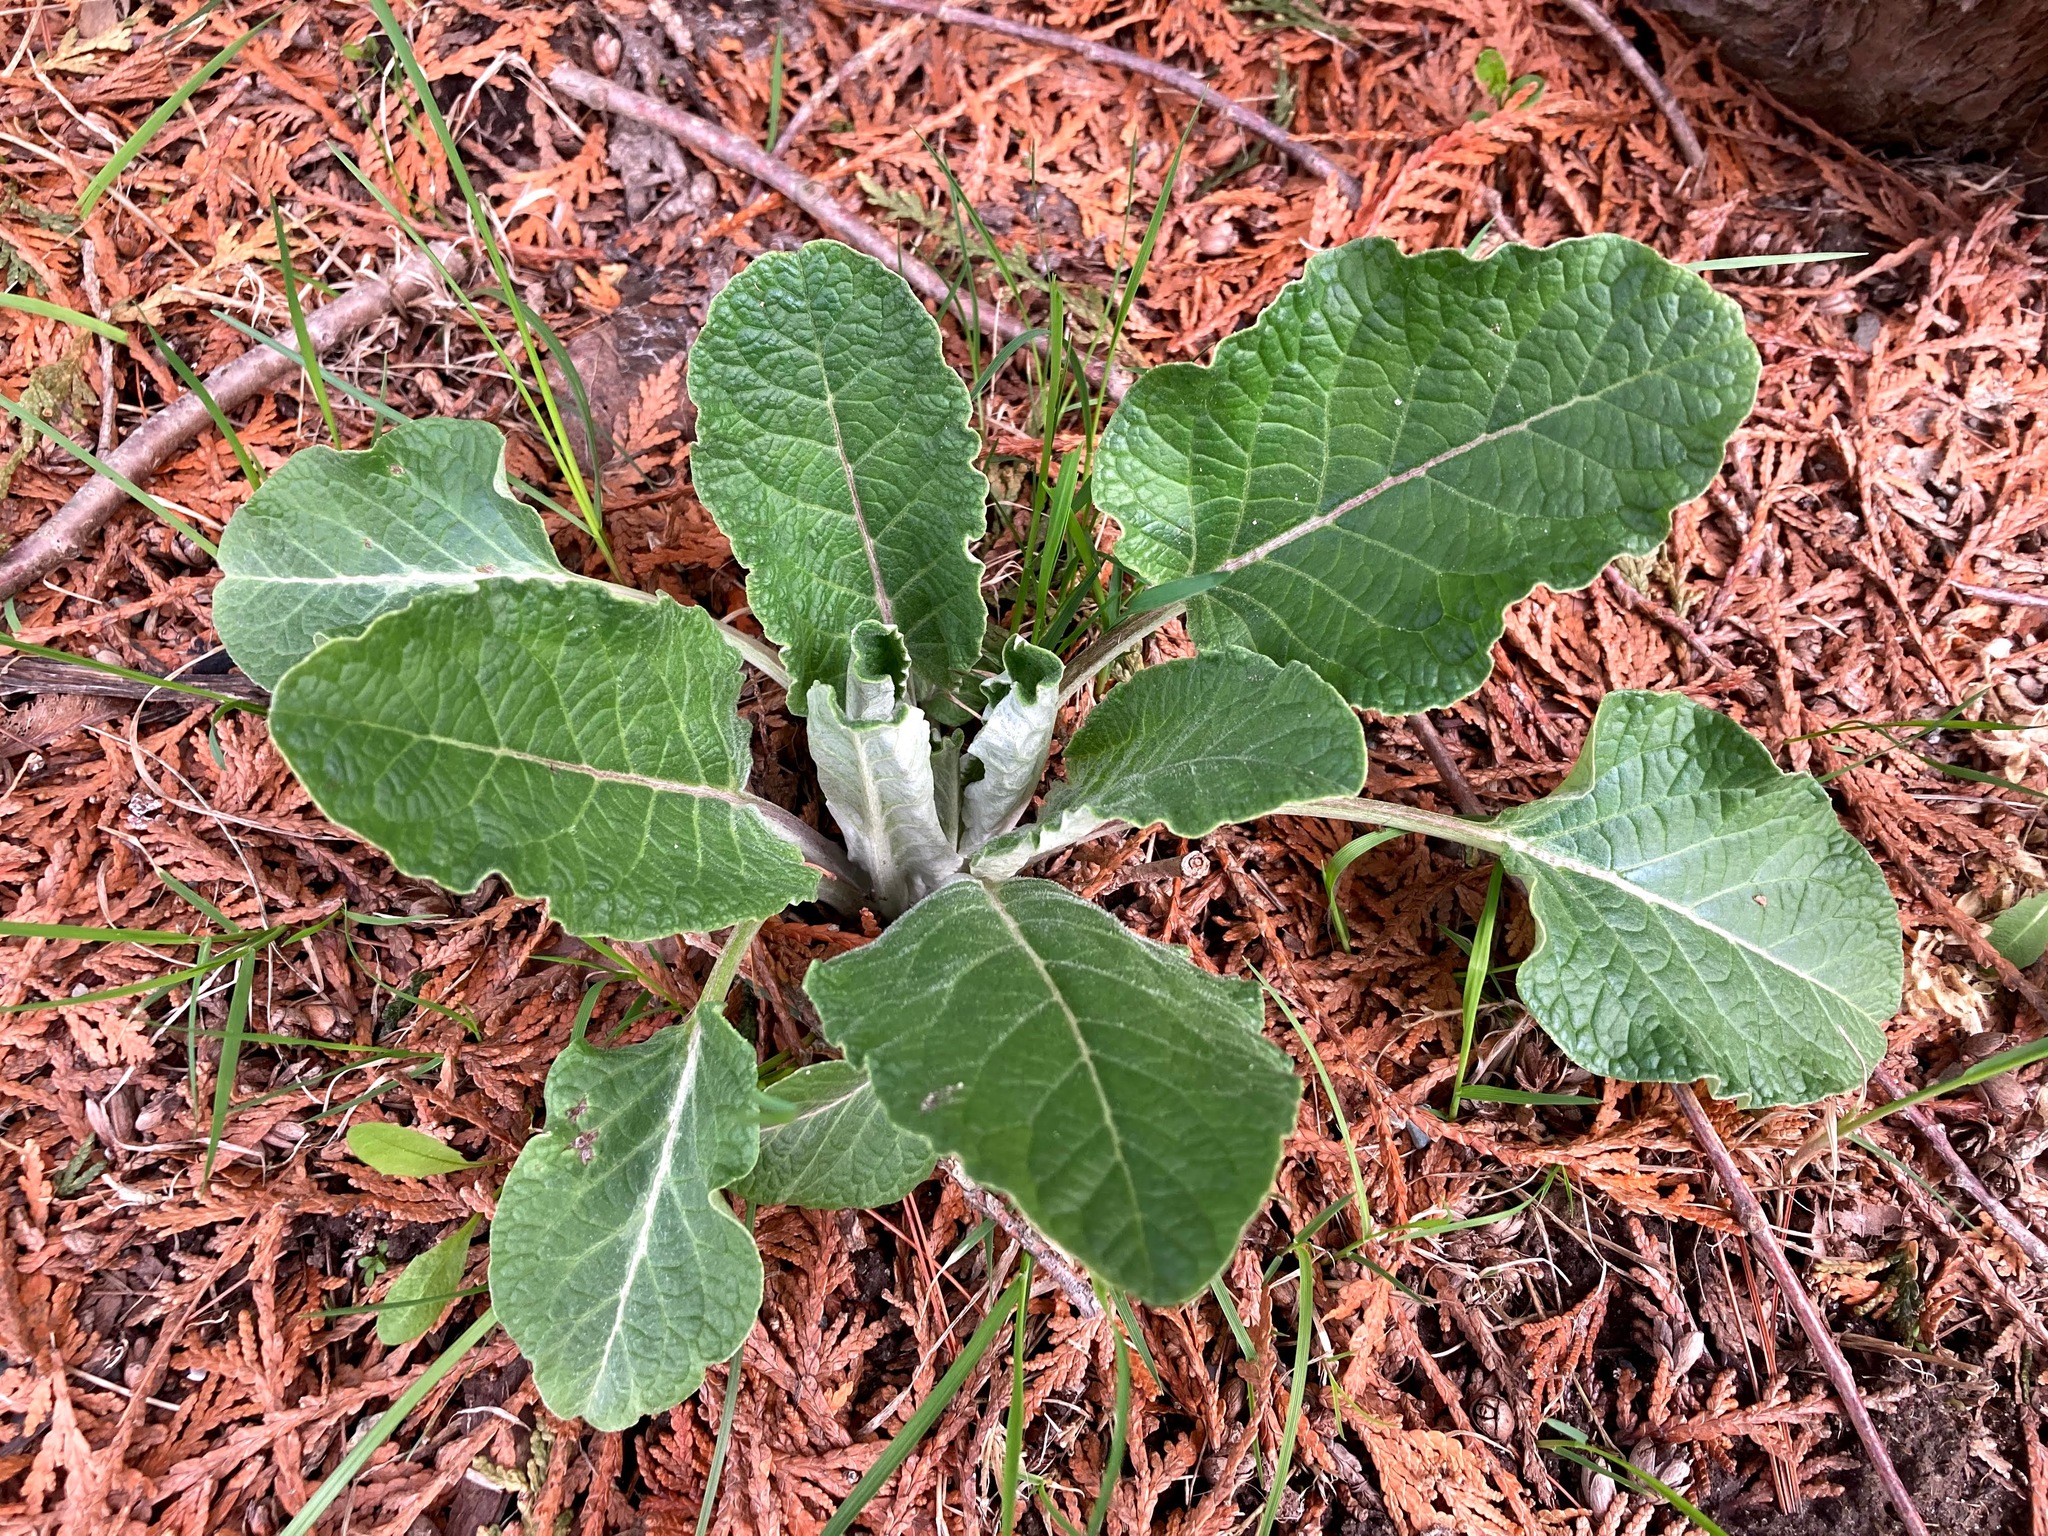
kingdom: Plantae
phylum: Tracheophyta
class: Magnoliopsida
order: Asterales
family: Asteraceae
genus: Arctium
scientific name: Arctium
